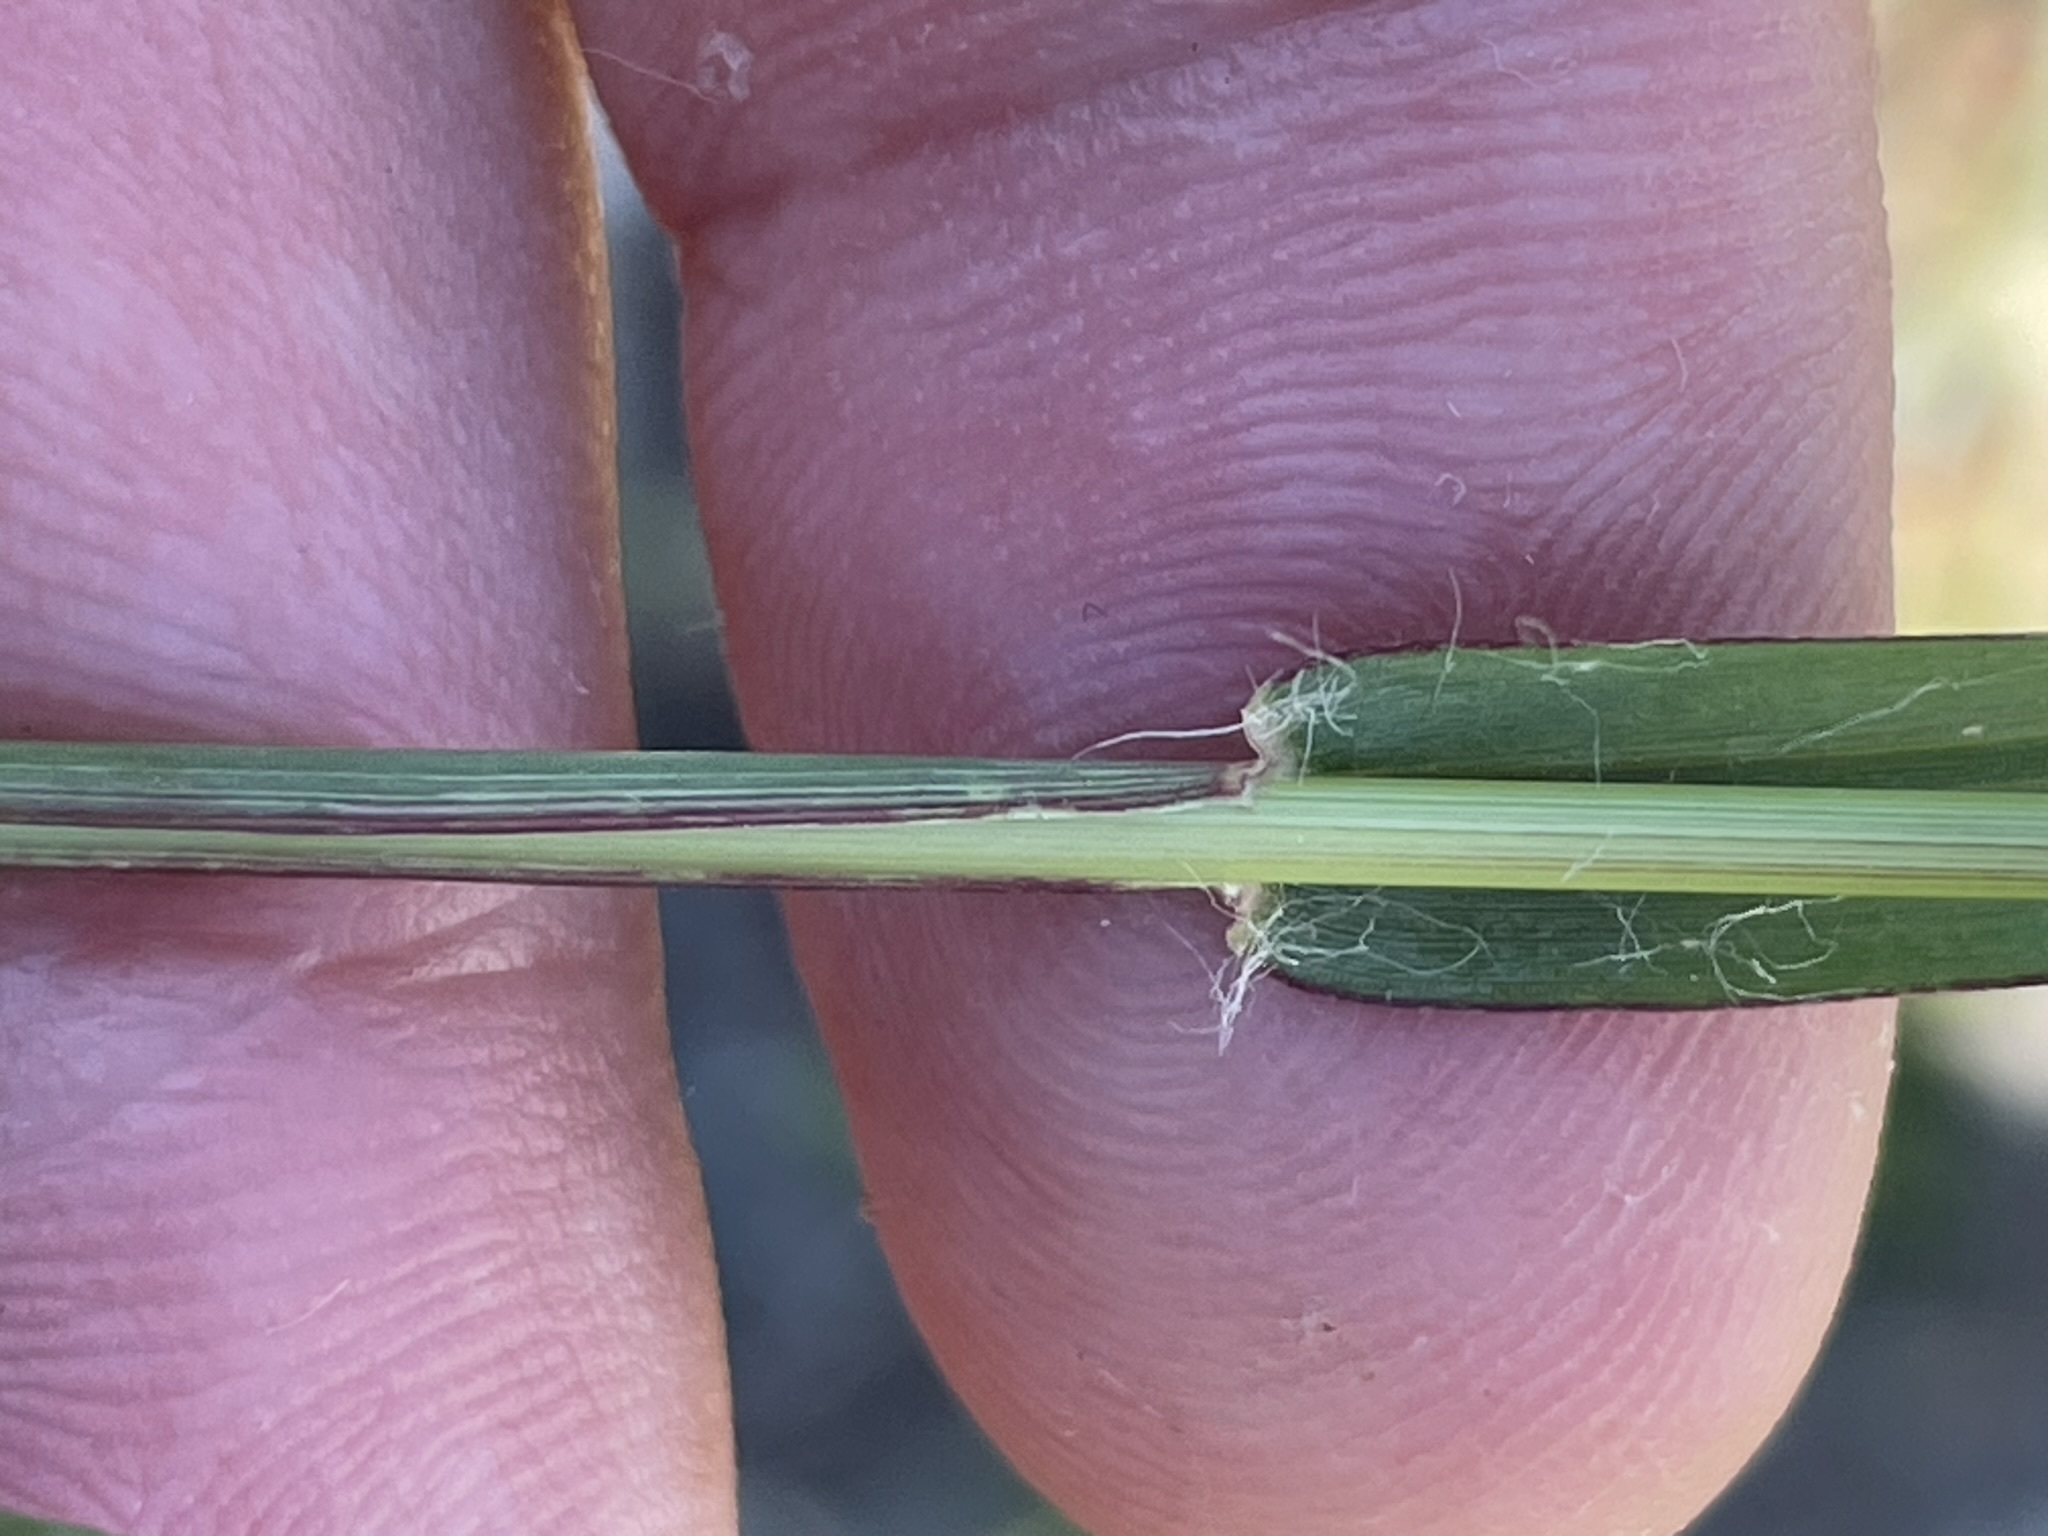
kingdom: Plantae
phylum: Tracheophyta
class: Liliopsida
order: Poales
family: Poaceae
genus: Setaria
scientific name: Setaria pumila
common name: Yellow bristle-grass
